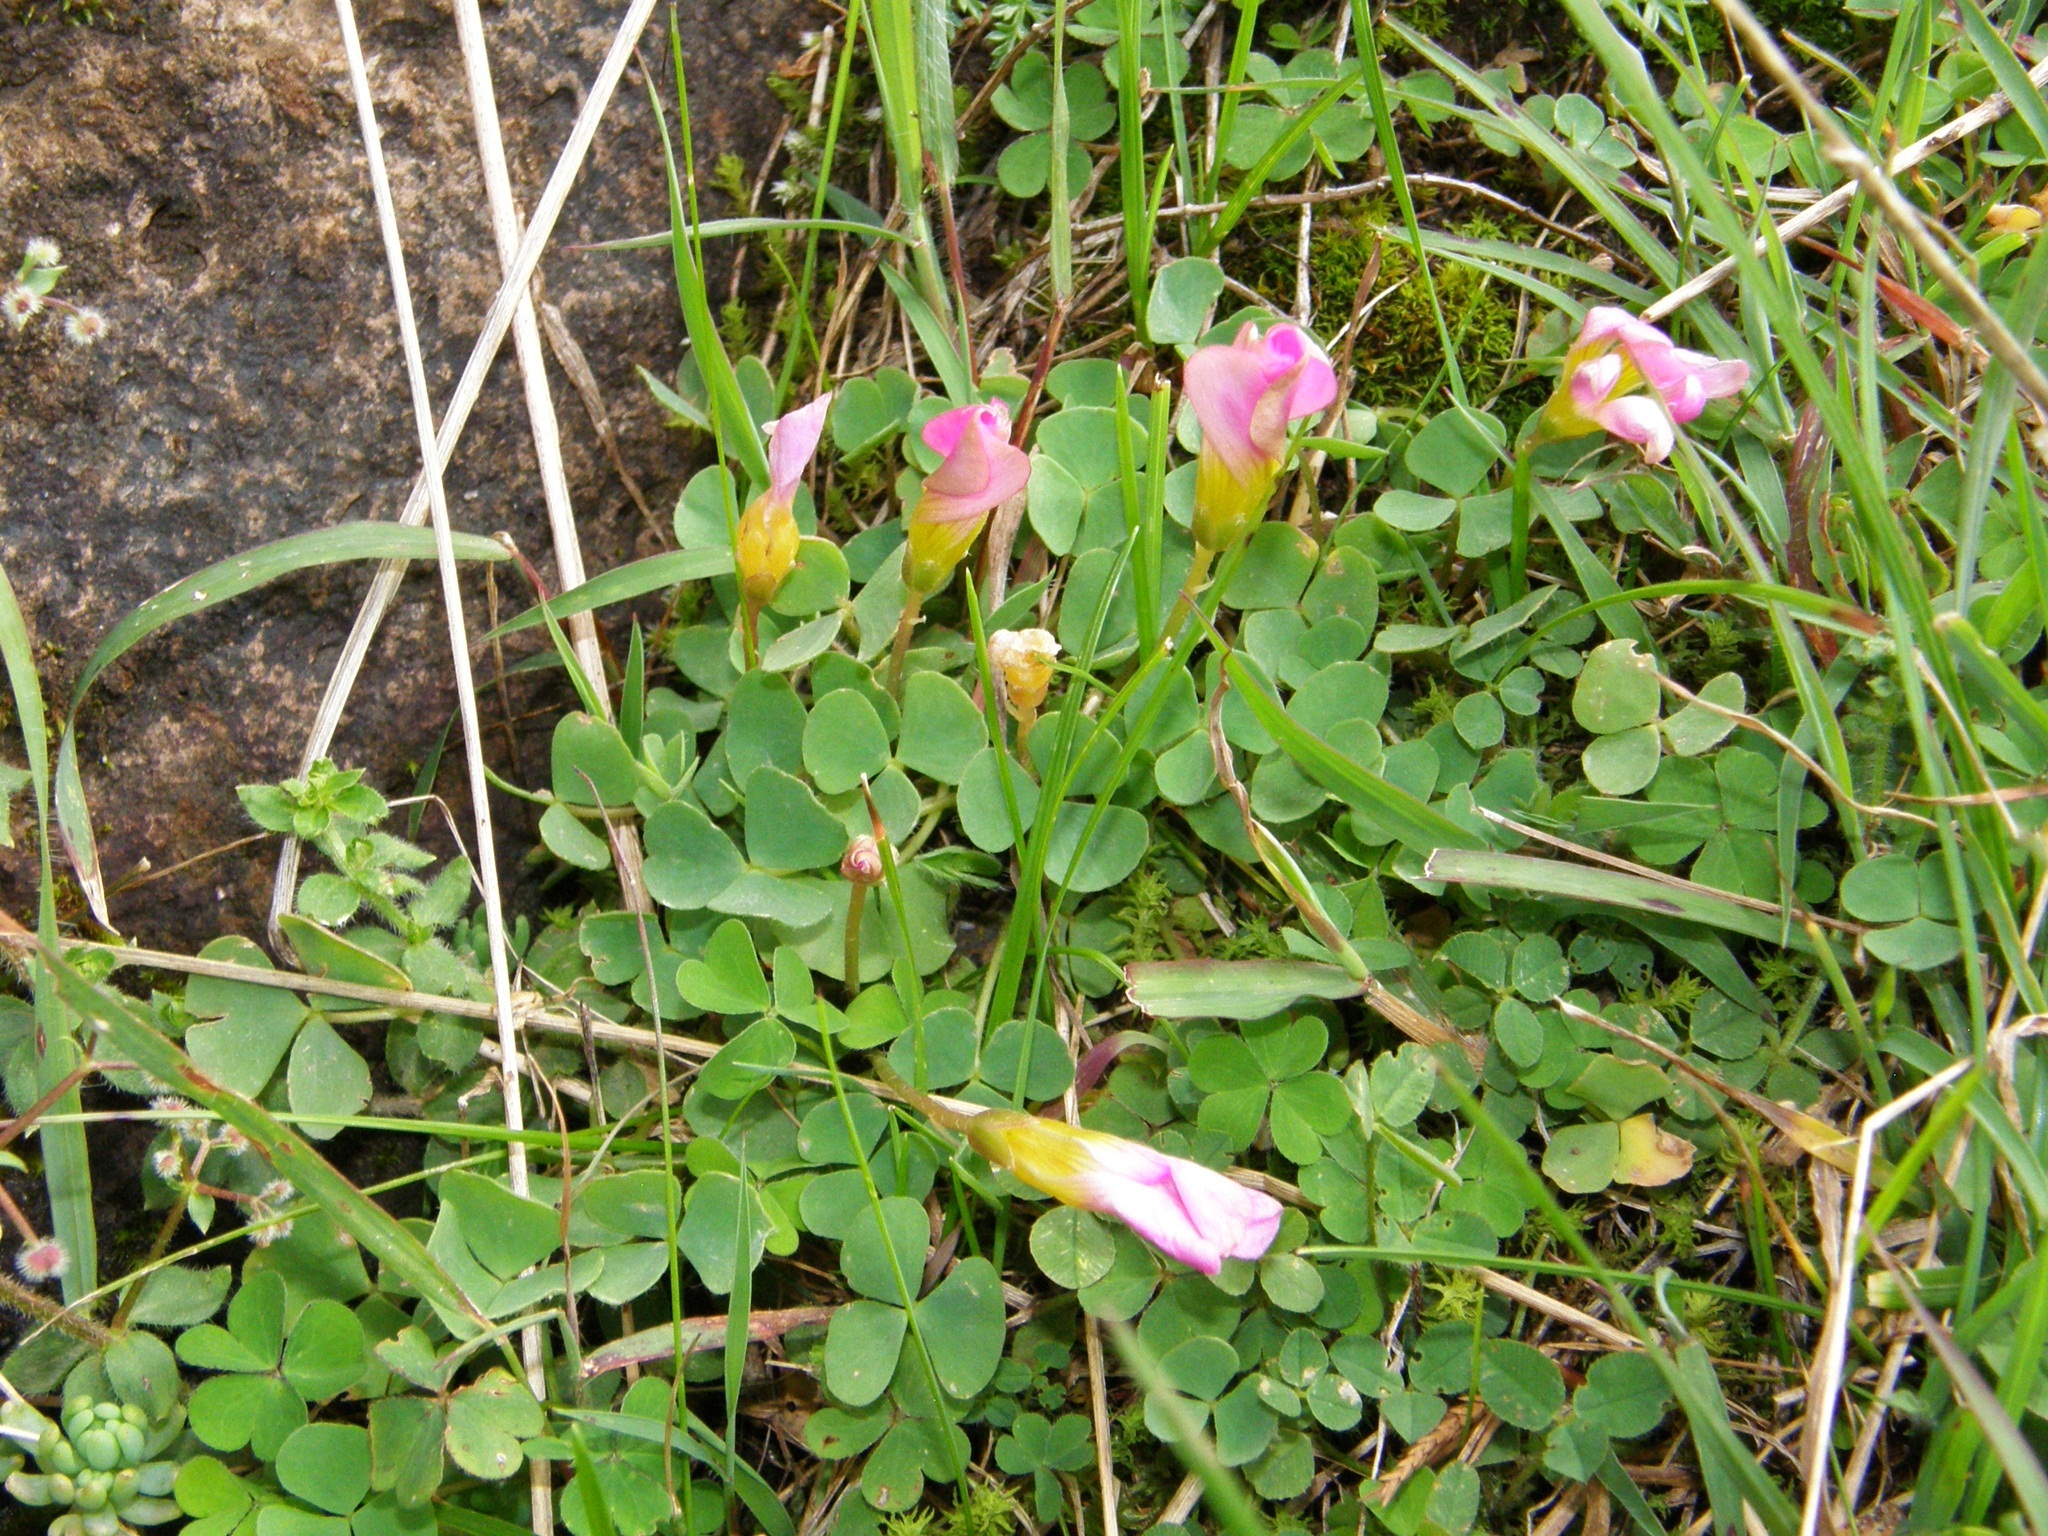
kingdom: Plantae
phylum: Tracheophyta
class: Magnoliopsida
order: Oxalidales
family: Oxalidaceae
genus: Oxalis
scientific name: Oxalis obliquifolia
